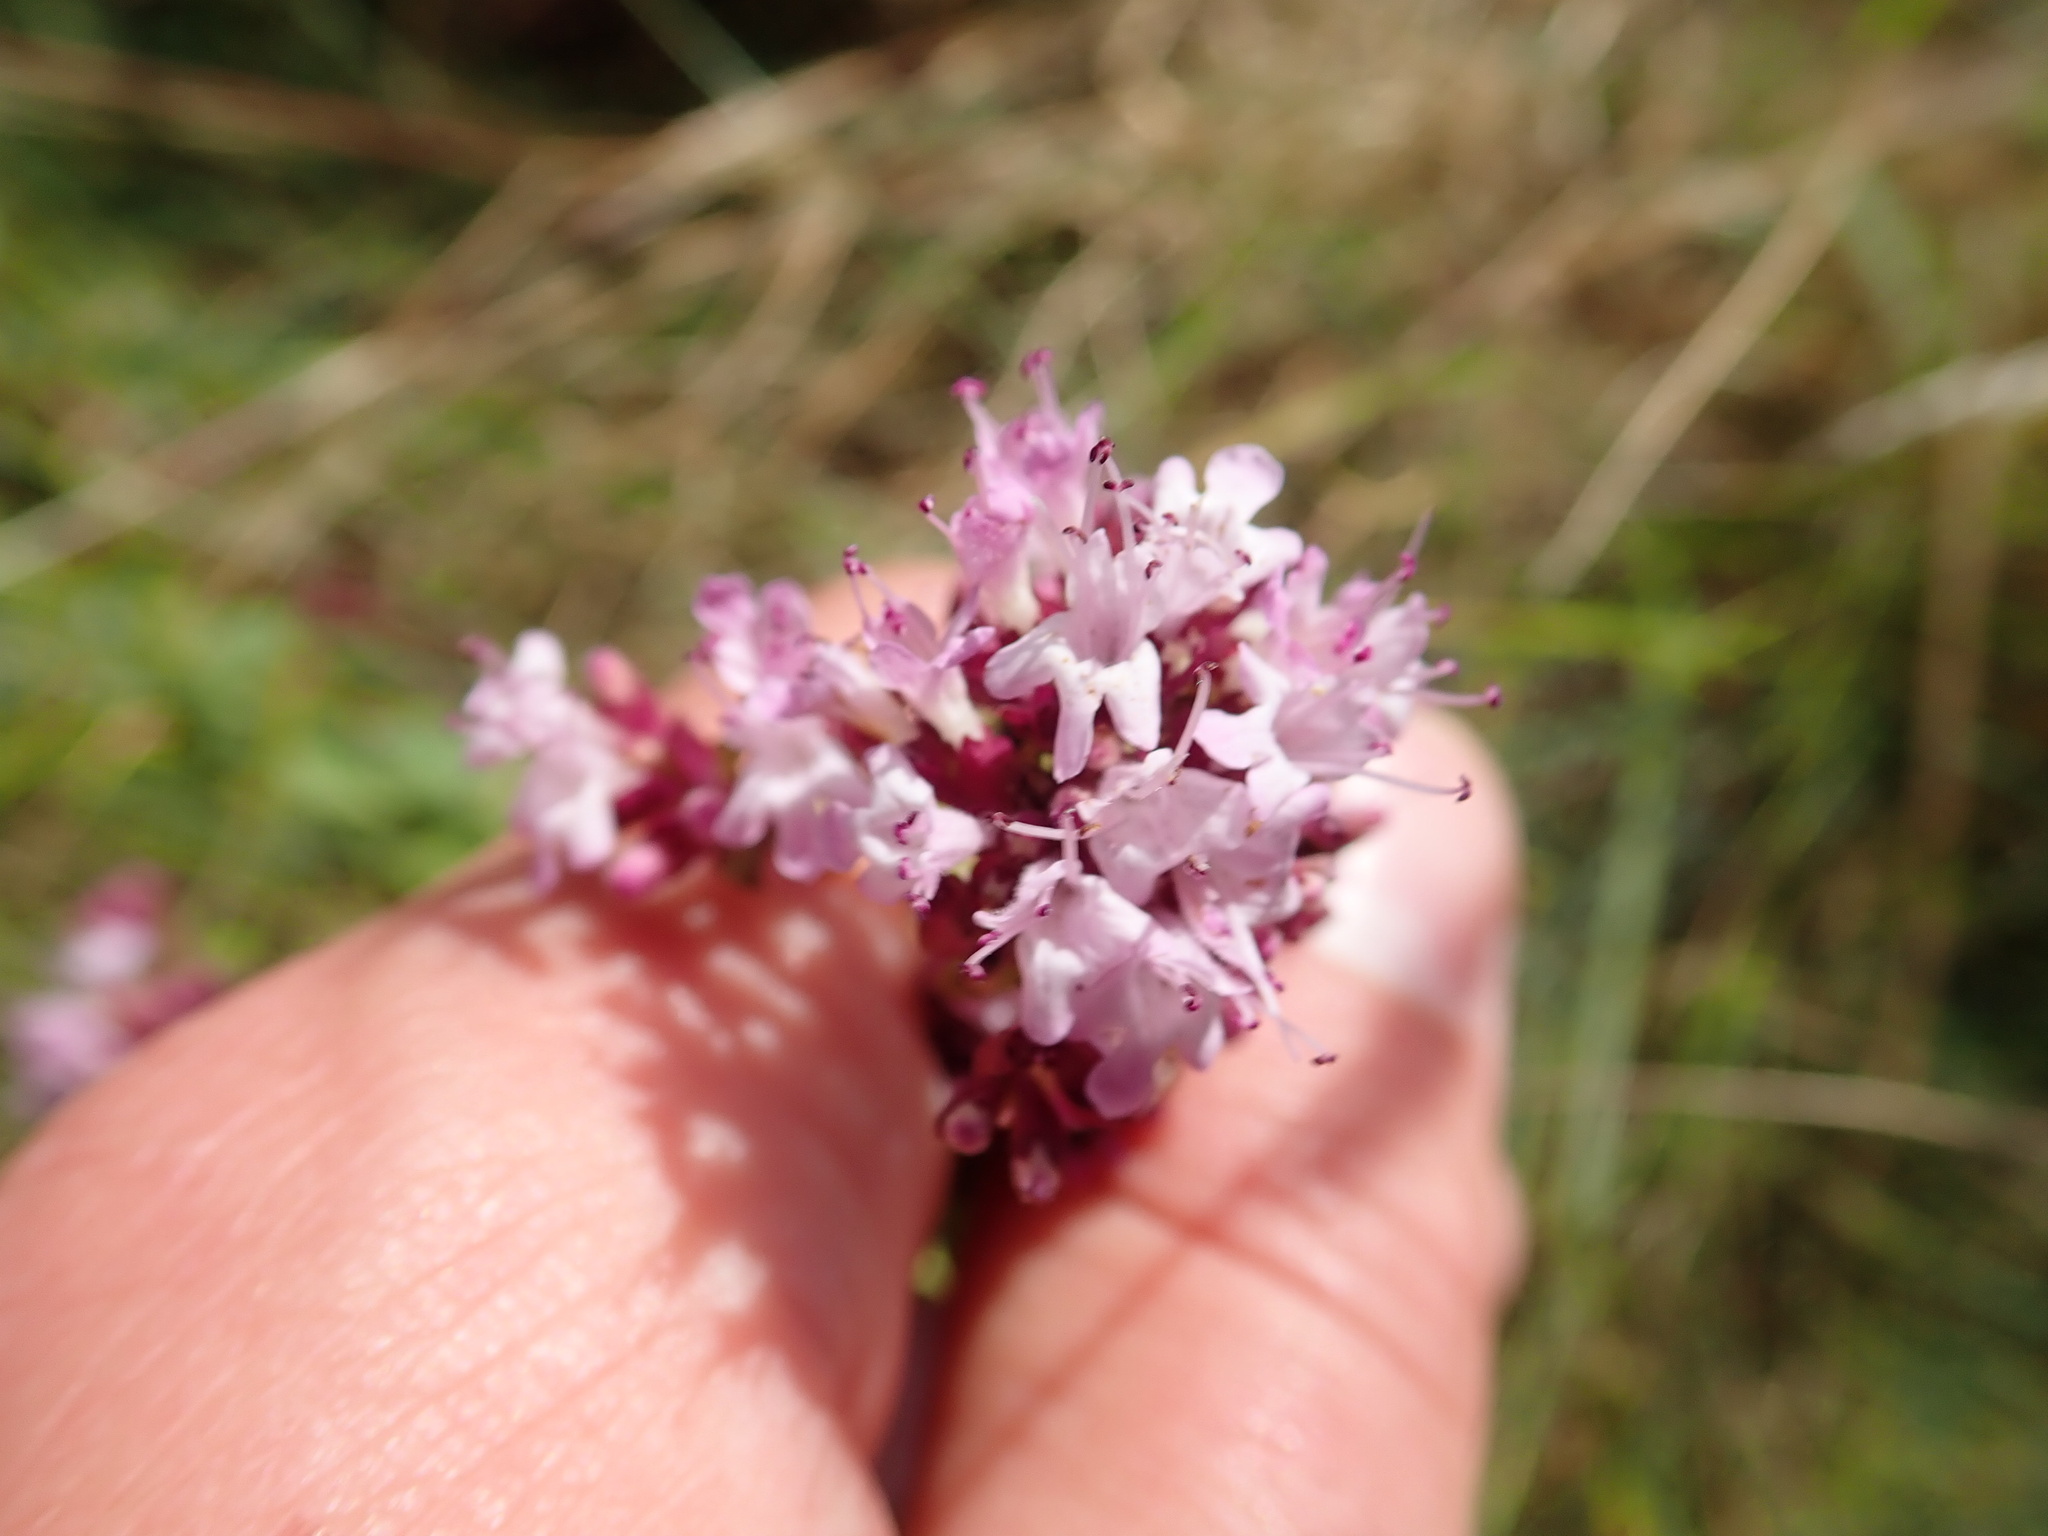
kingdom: Plantae
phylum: Tracheophyta
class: Magnoliopsida
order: Lamiales
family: Lamiaceae
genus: Origanum
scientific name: Origanum vulgare
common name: Wild marjoram
